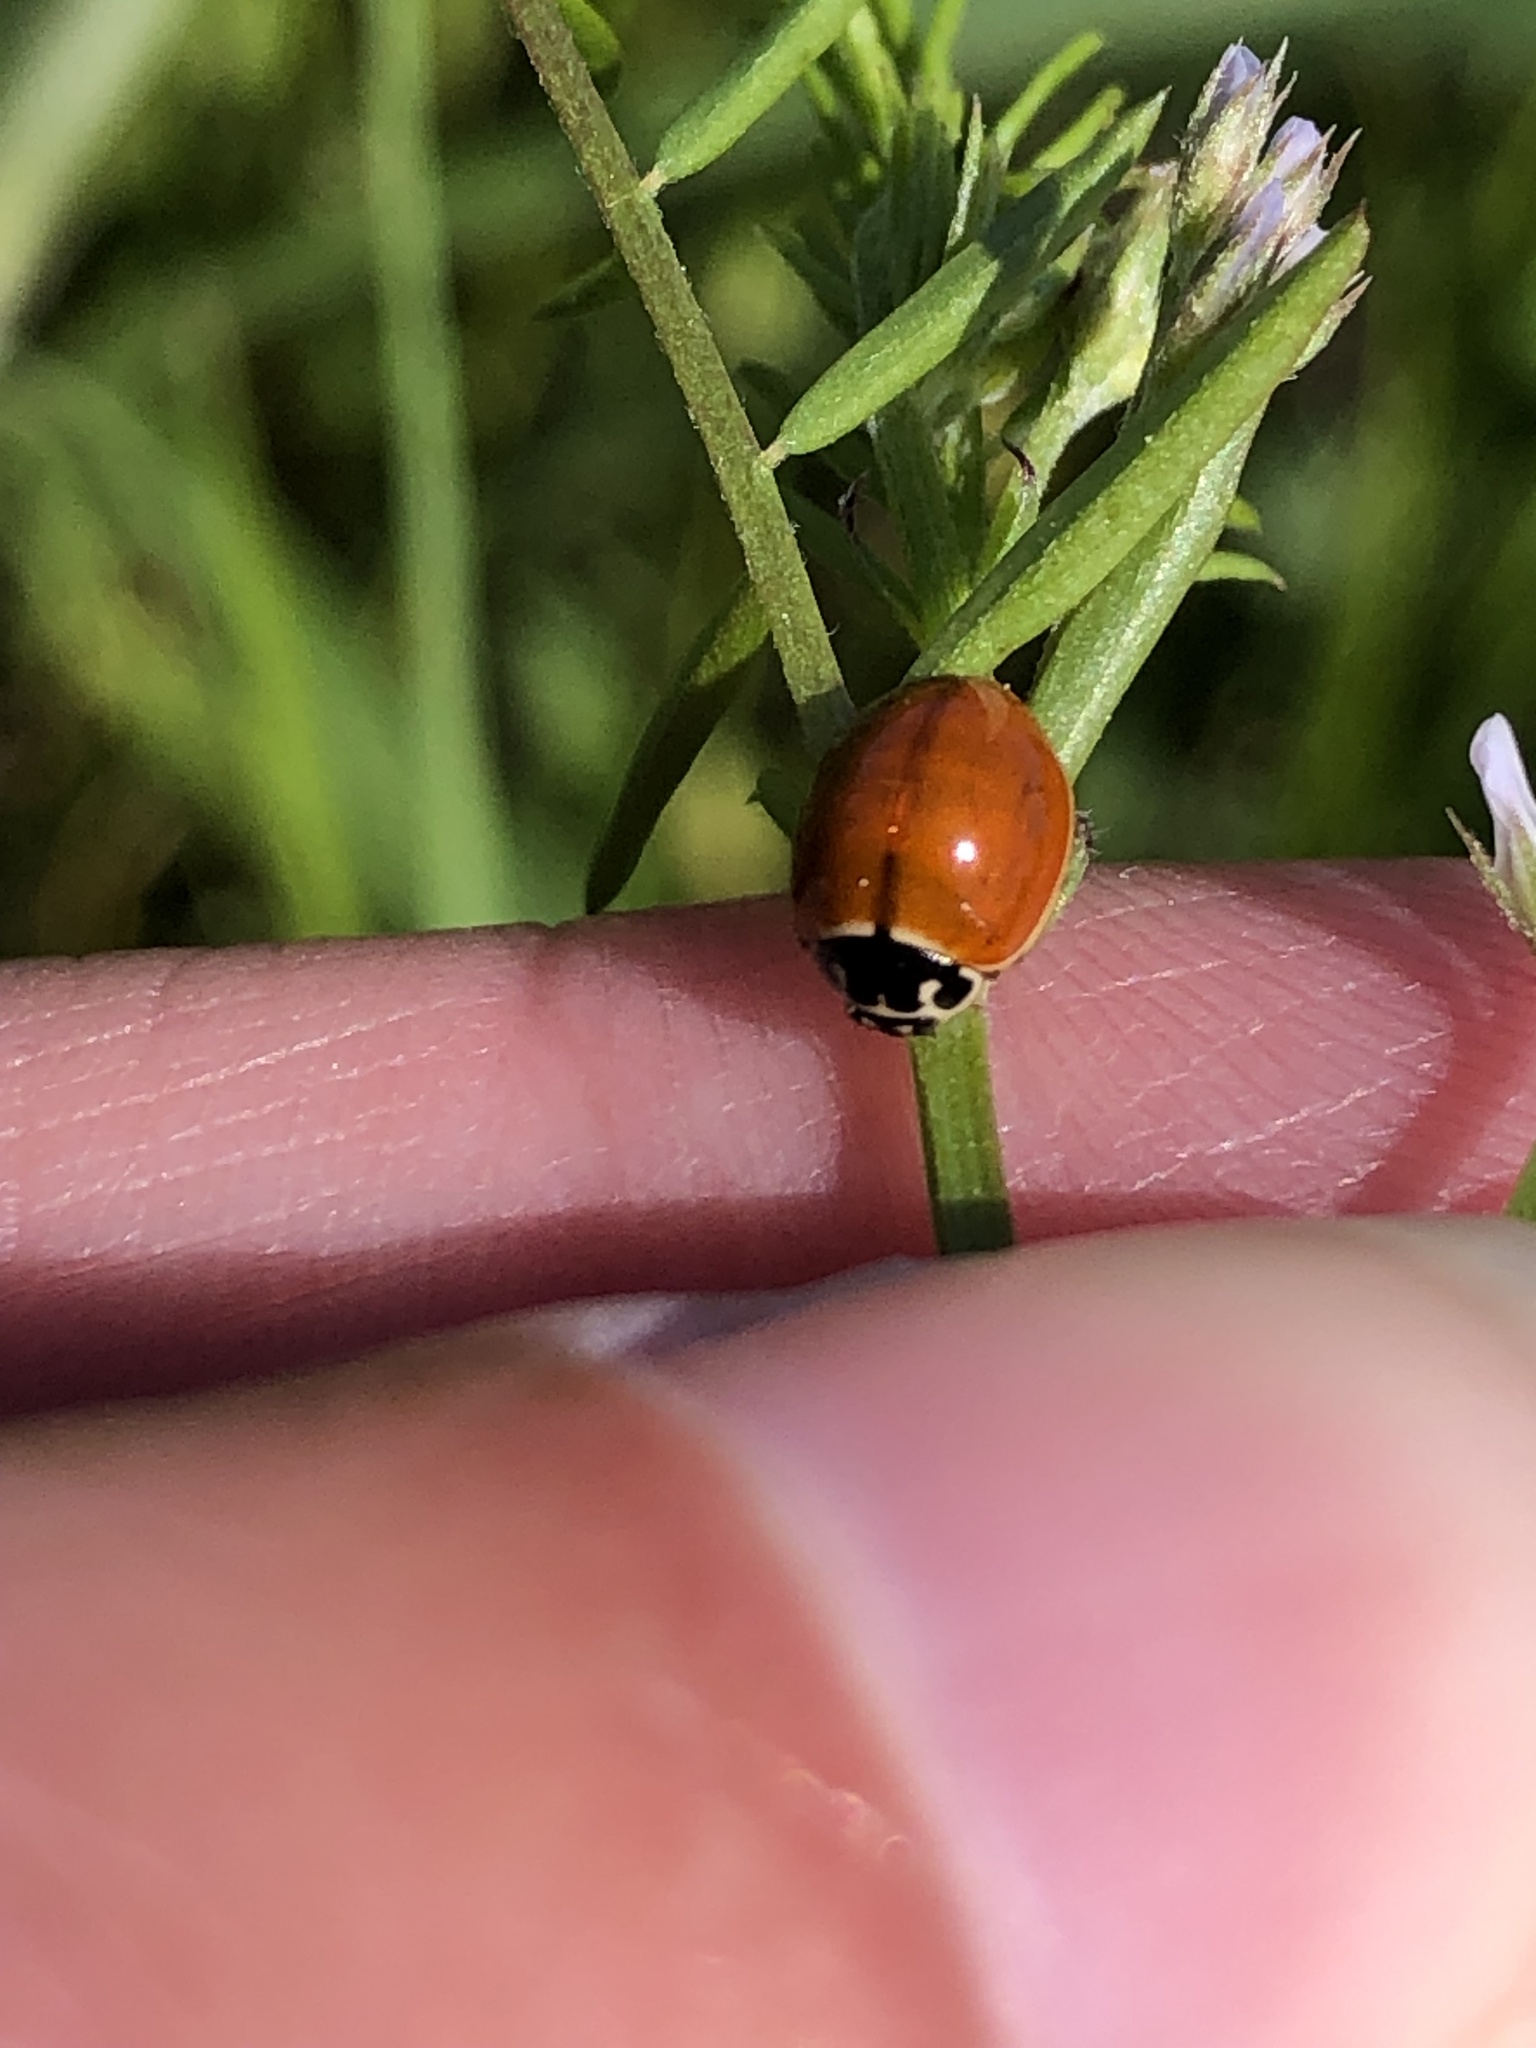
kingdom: Animalia
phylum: Arthropoda
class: Insecta
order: Coleoptera
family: Coccinellidae
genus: Cycloneda
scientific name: Cycloneda munda
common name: Polished lady beetle
